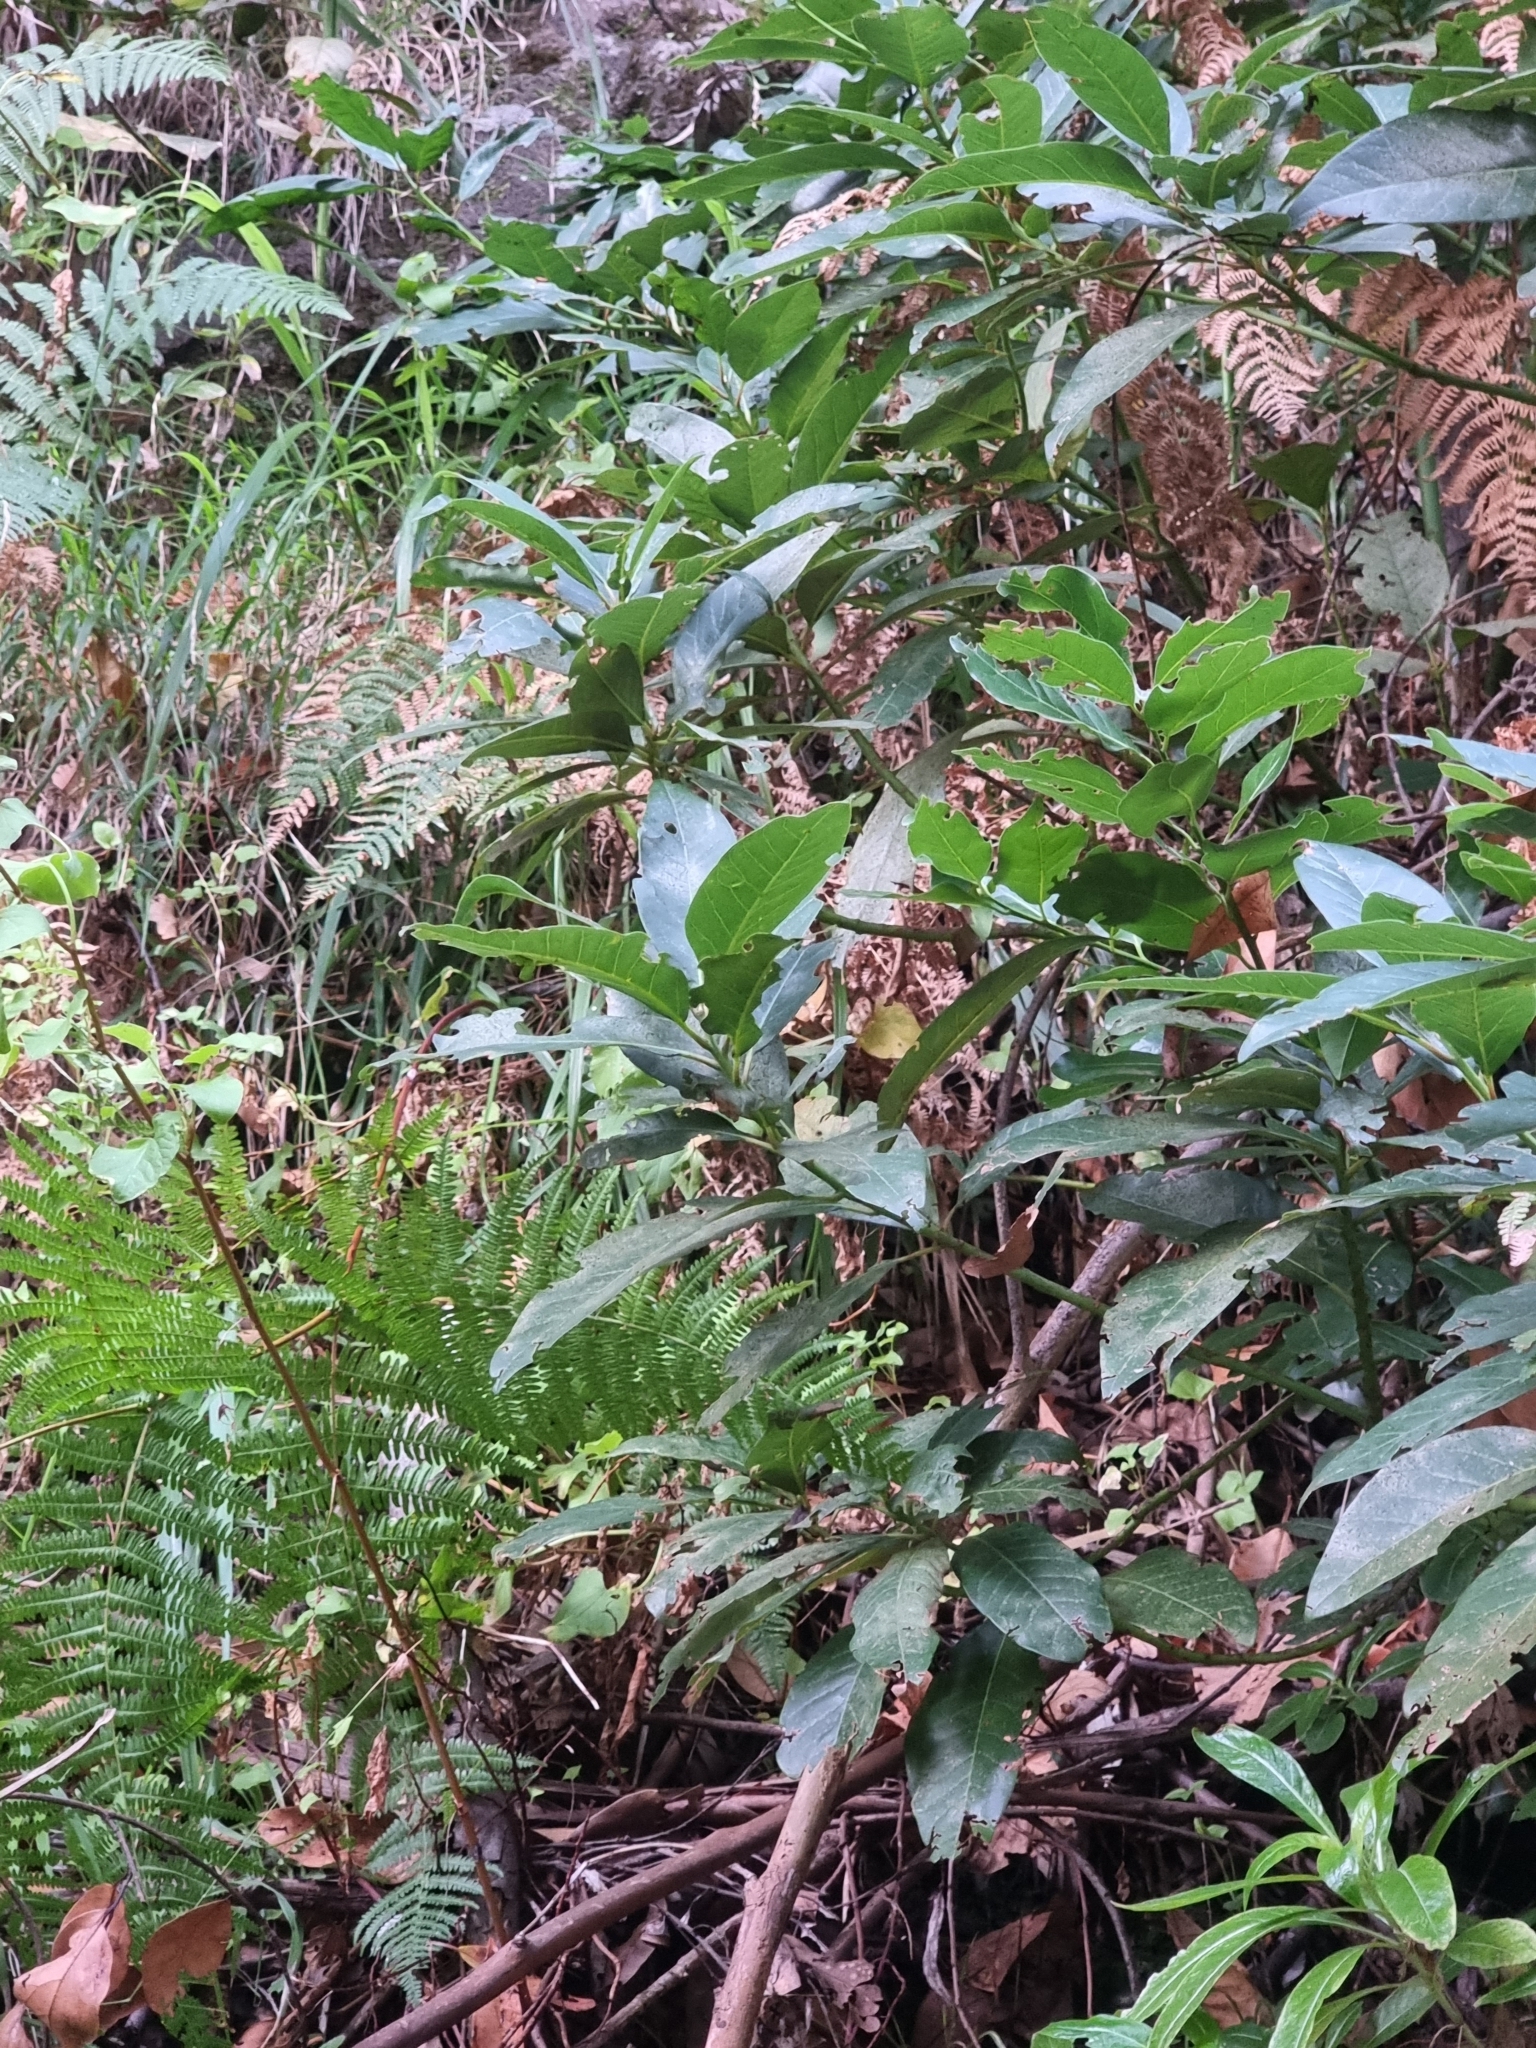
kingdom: Plantae
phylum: Tracheophyta
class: Magnoliopsida
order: Laurales
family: Lauraceae
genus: Persea
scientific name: Persea indica
